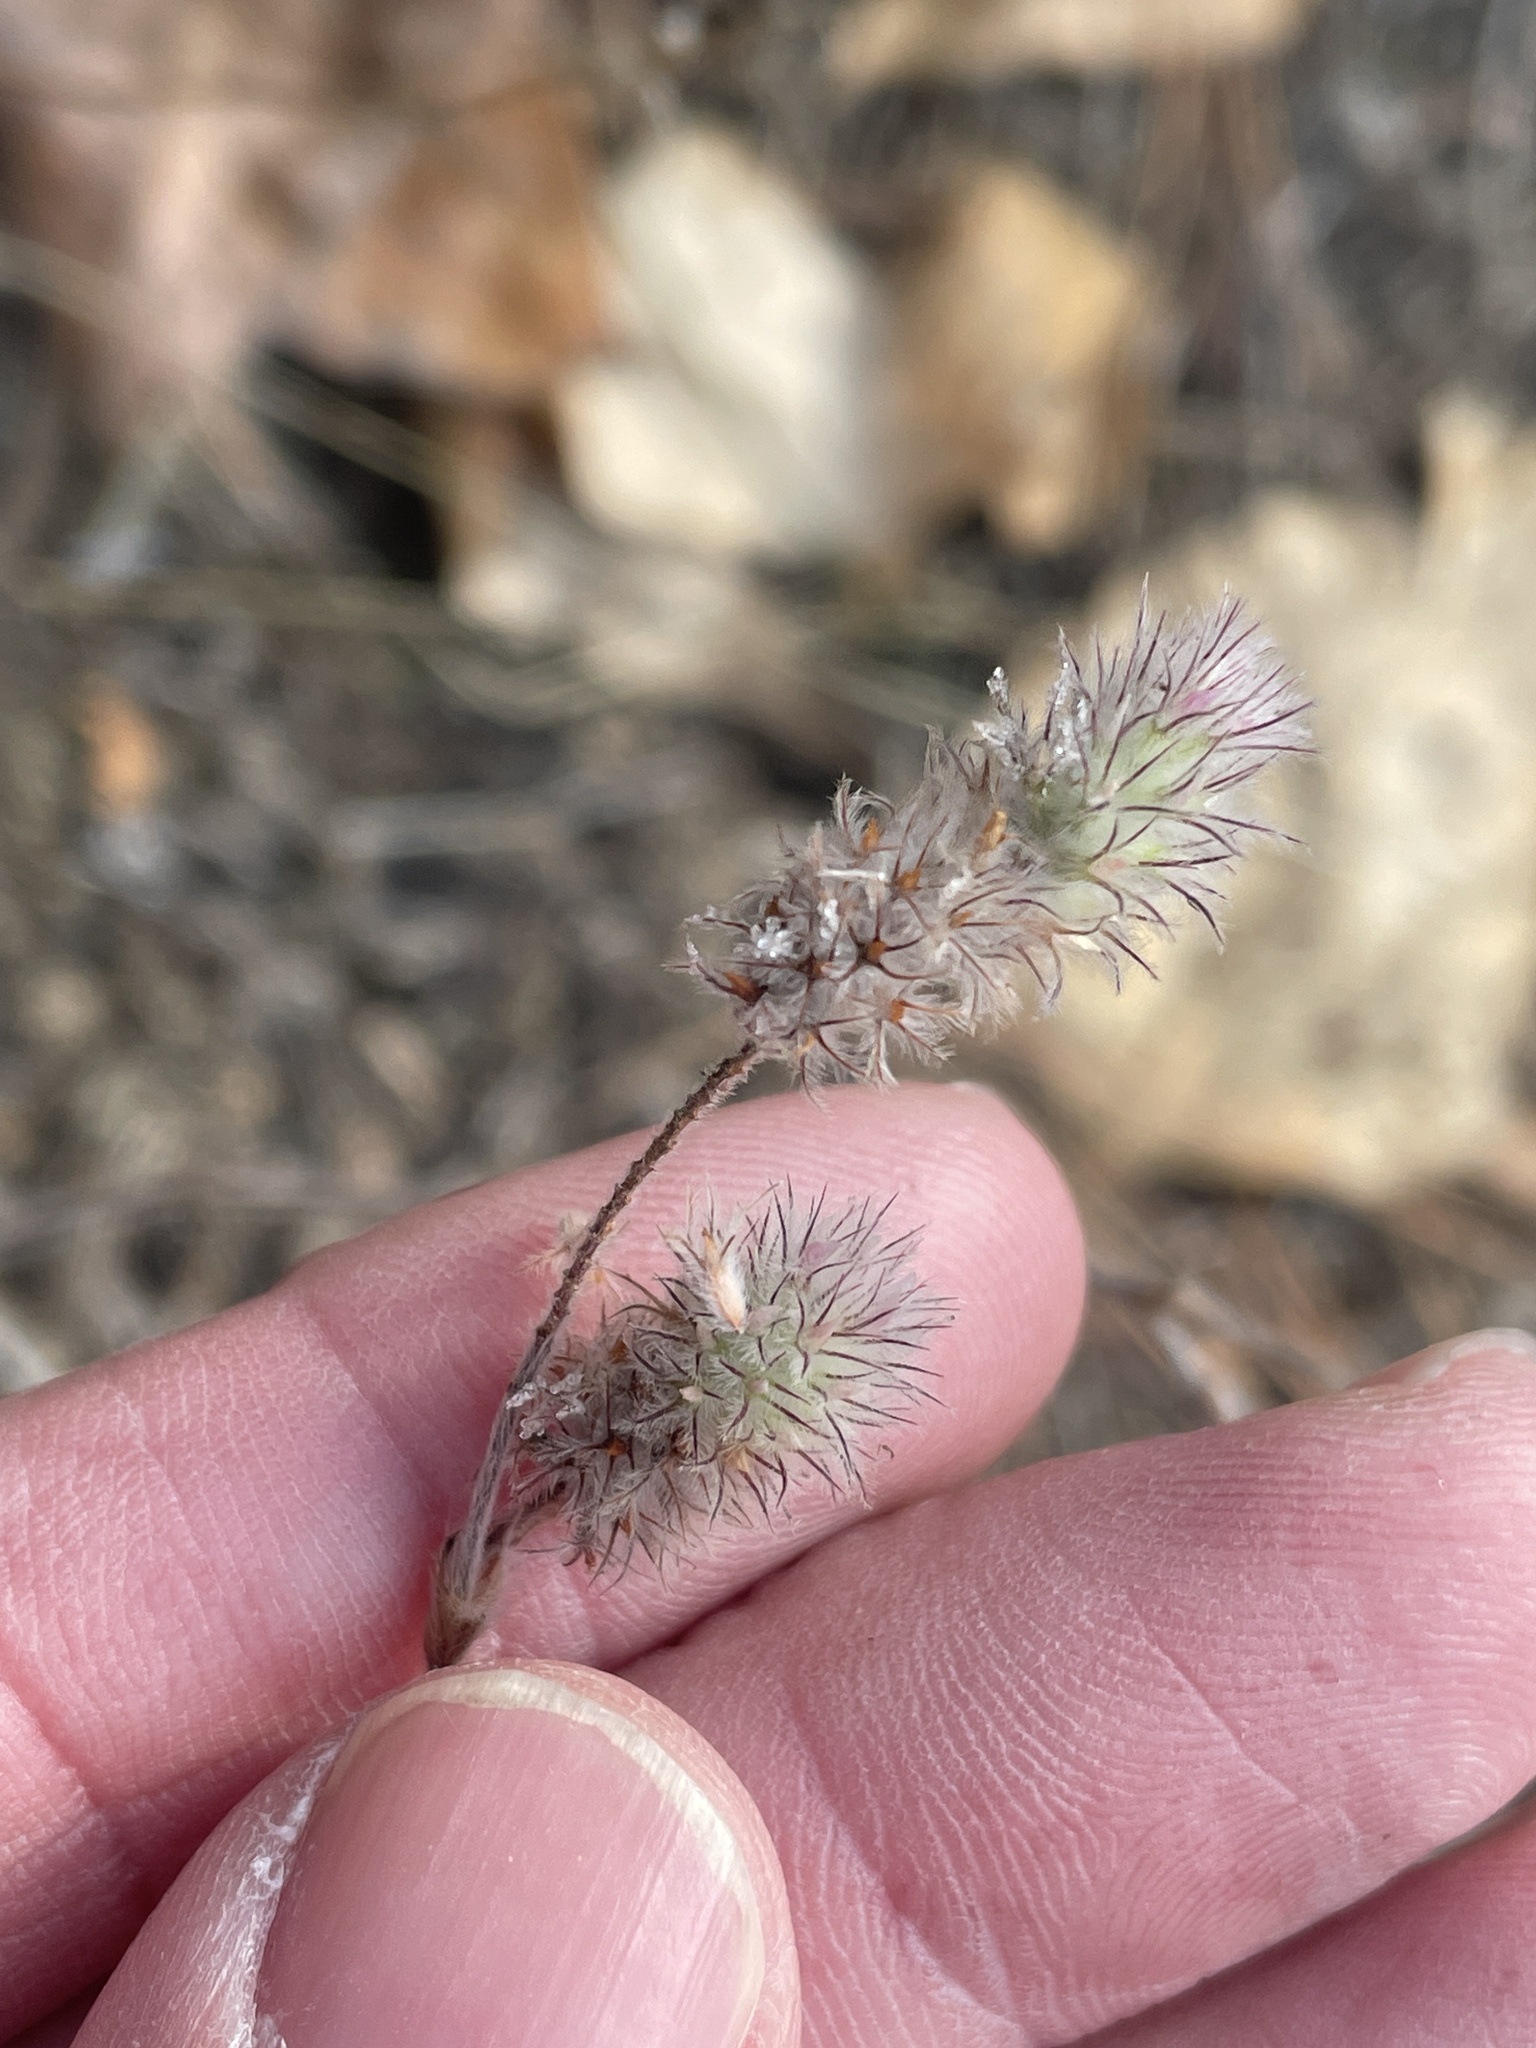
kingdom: Plantae
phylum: Tracheophyta
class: Magnoliopsida
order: Fabales
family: Fabaceae
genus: Trifolium
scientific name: Trifolium arvense
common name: Hare's-foot clover
